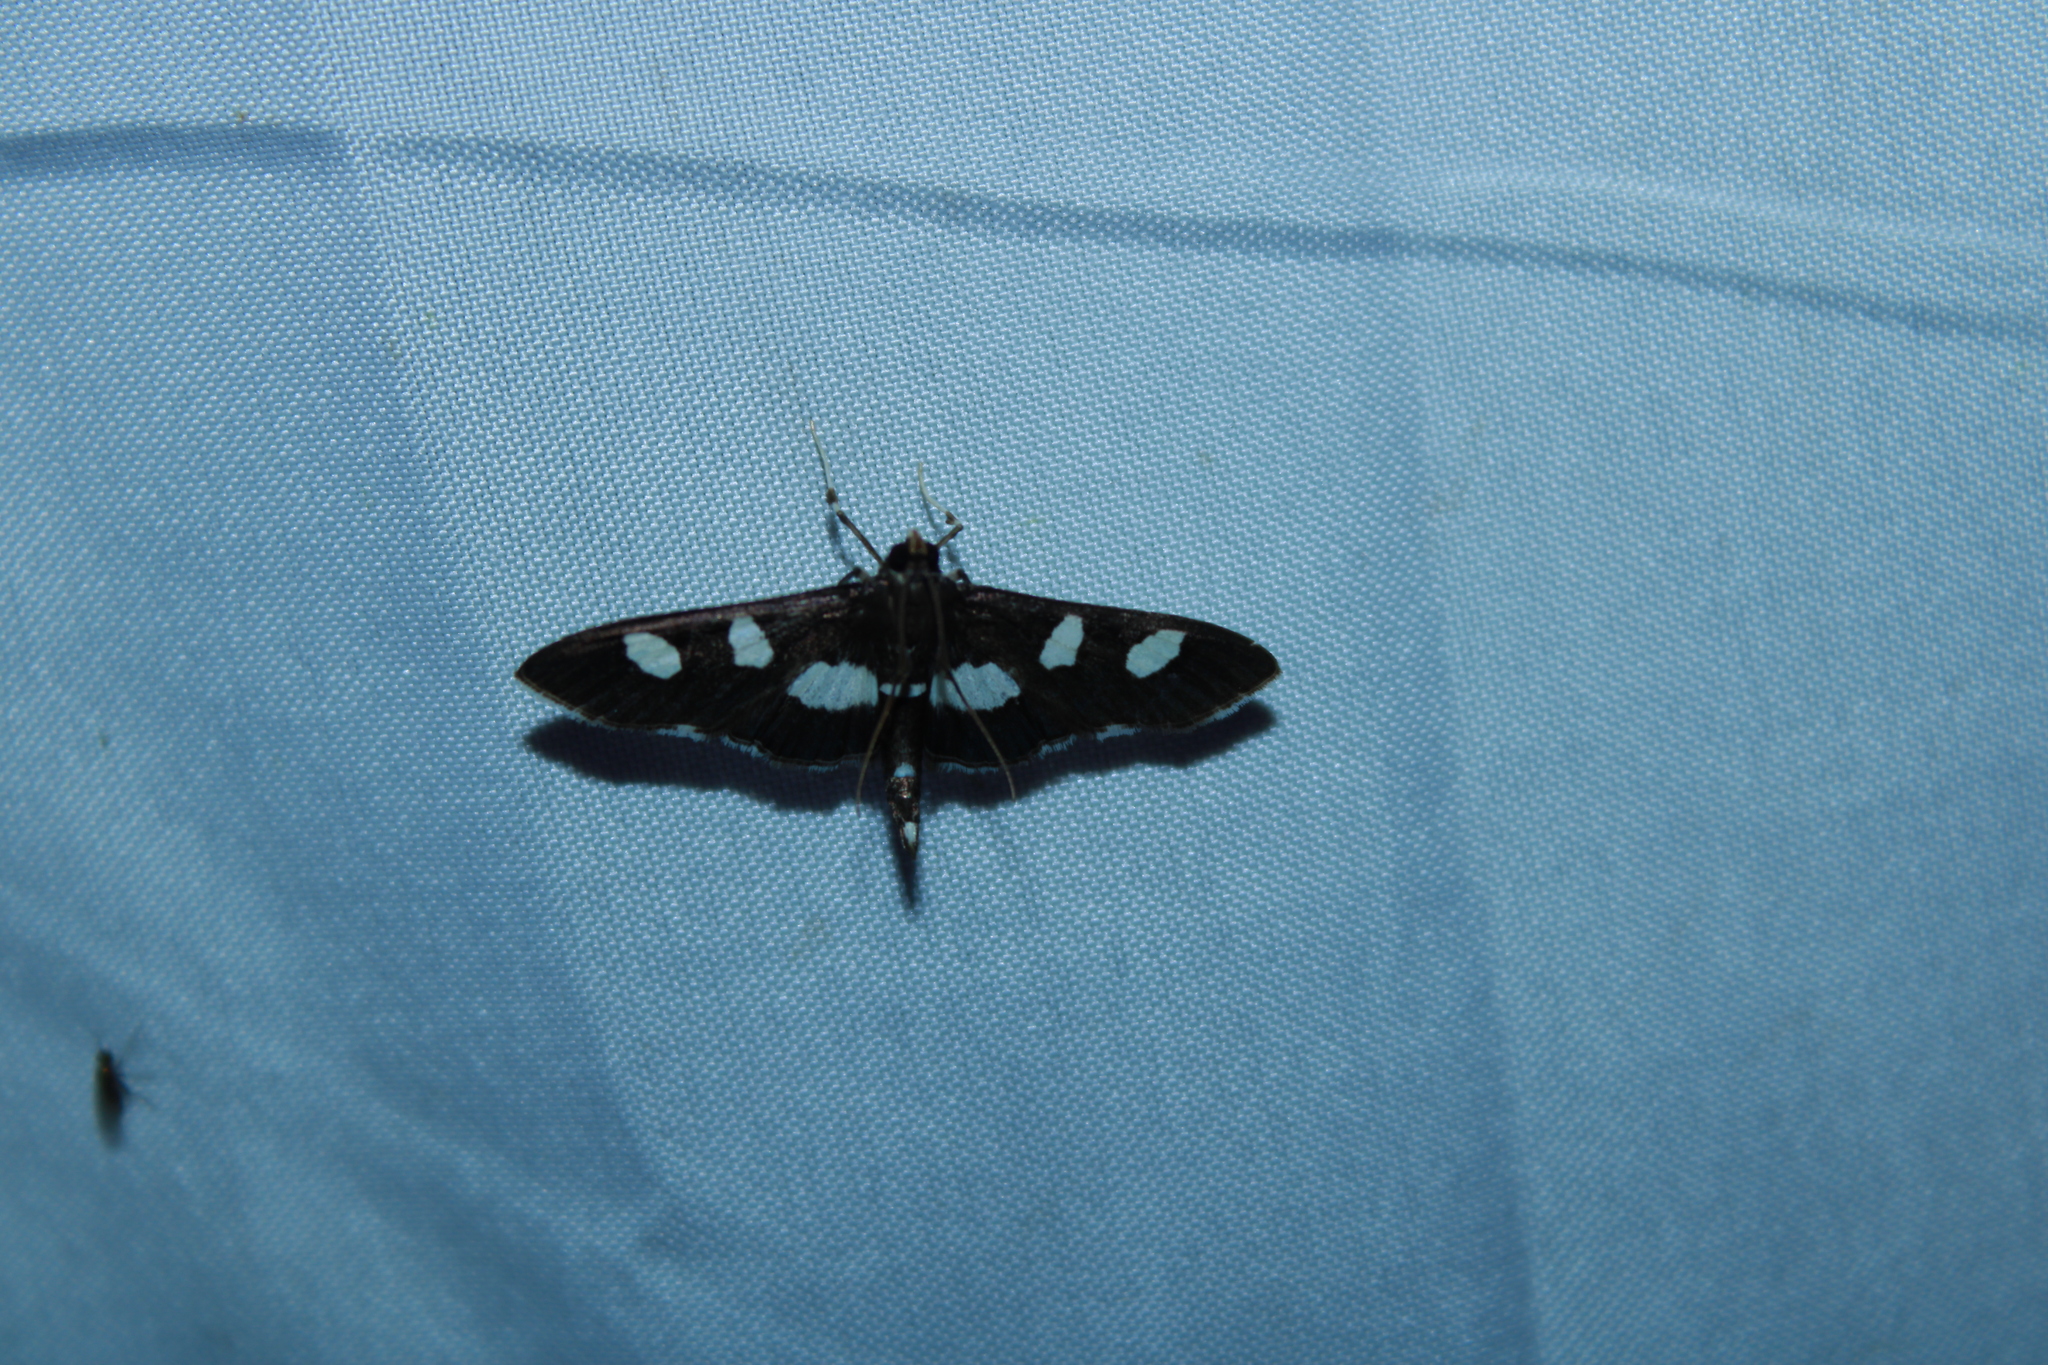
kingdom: Animalia
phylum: Arthropoda
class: Insecta
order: Lepidoptera
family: Crambidae
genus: Desmia
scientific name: Desmia
